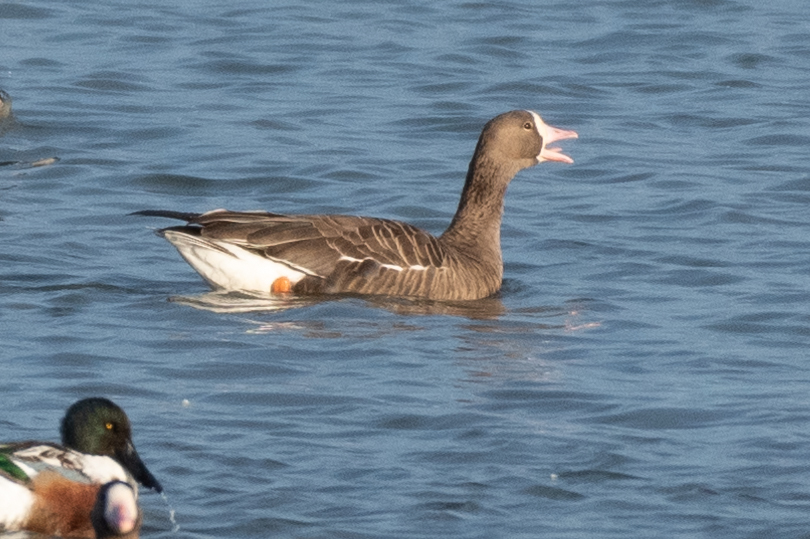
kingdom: Animalia
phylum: Chordata
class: Aves
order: Anseriformes
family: Anatidae
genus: Anser
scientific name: Anser albifrons
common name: Greater white-fronted goose
